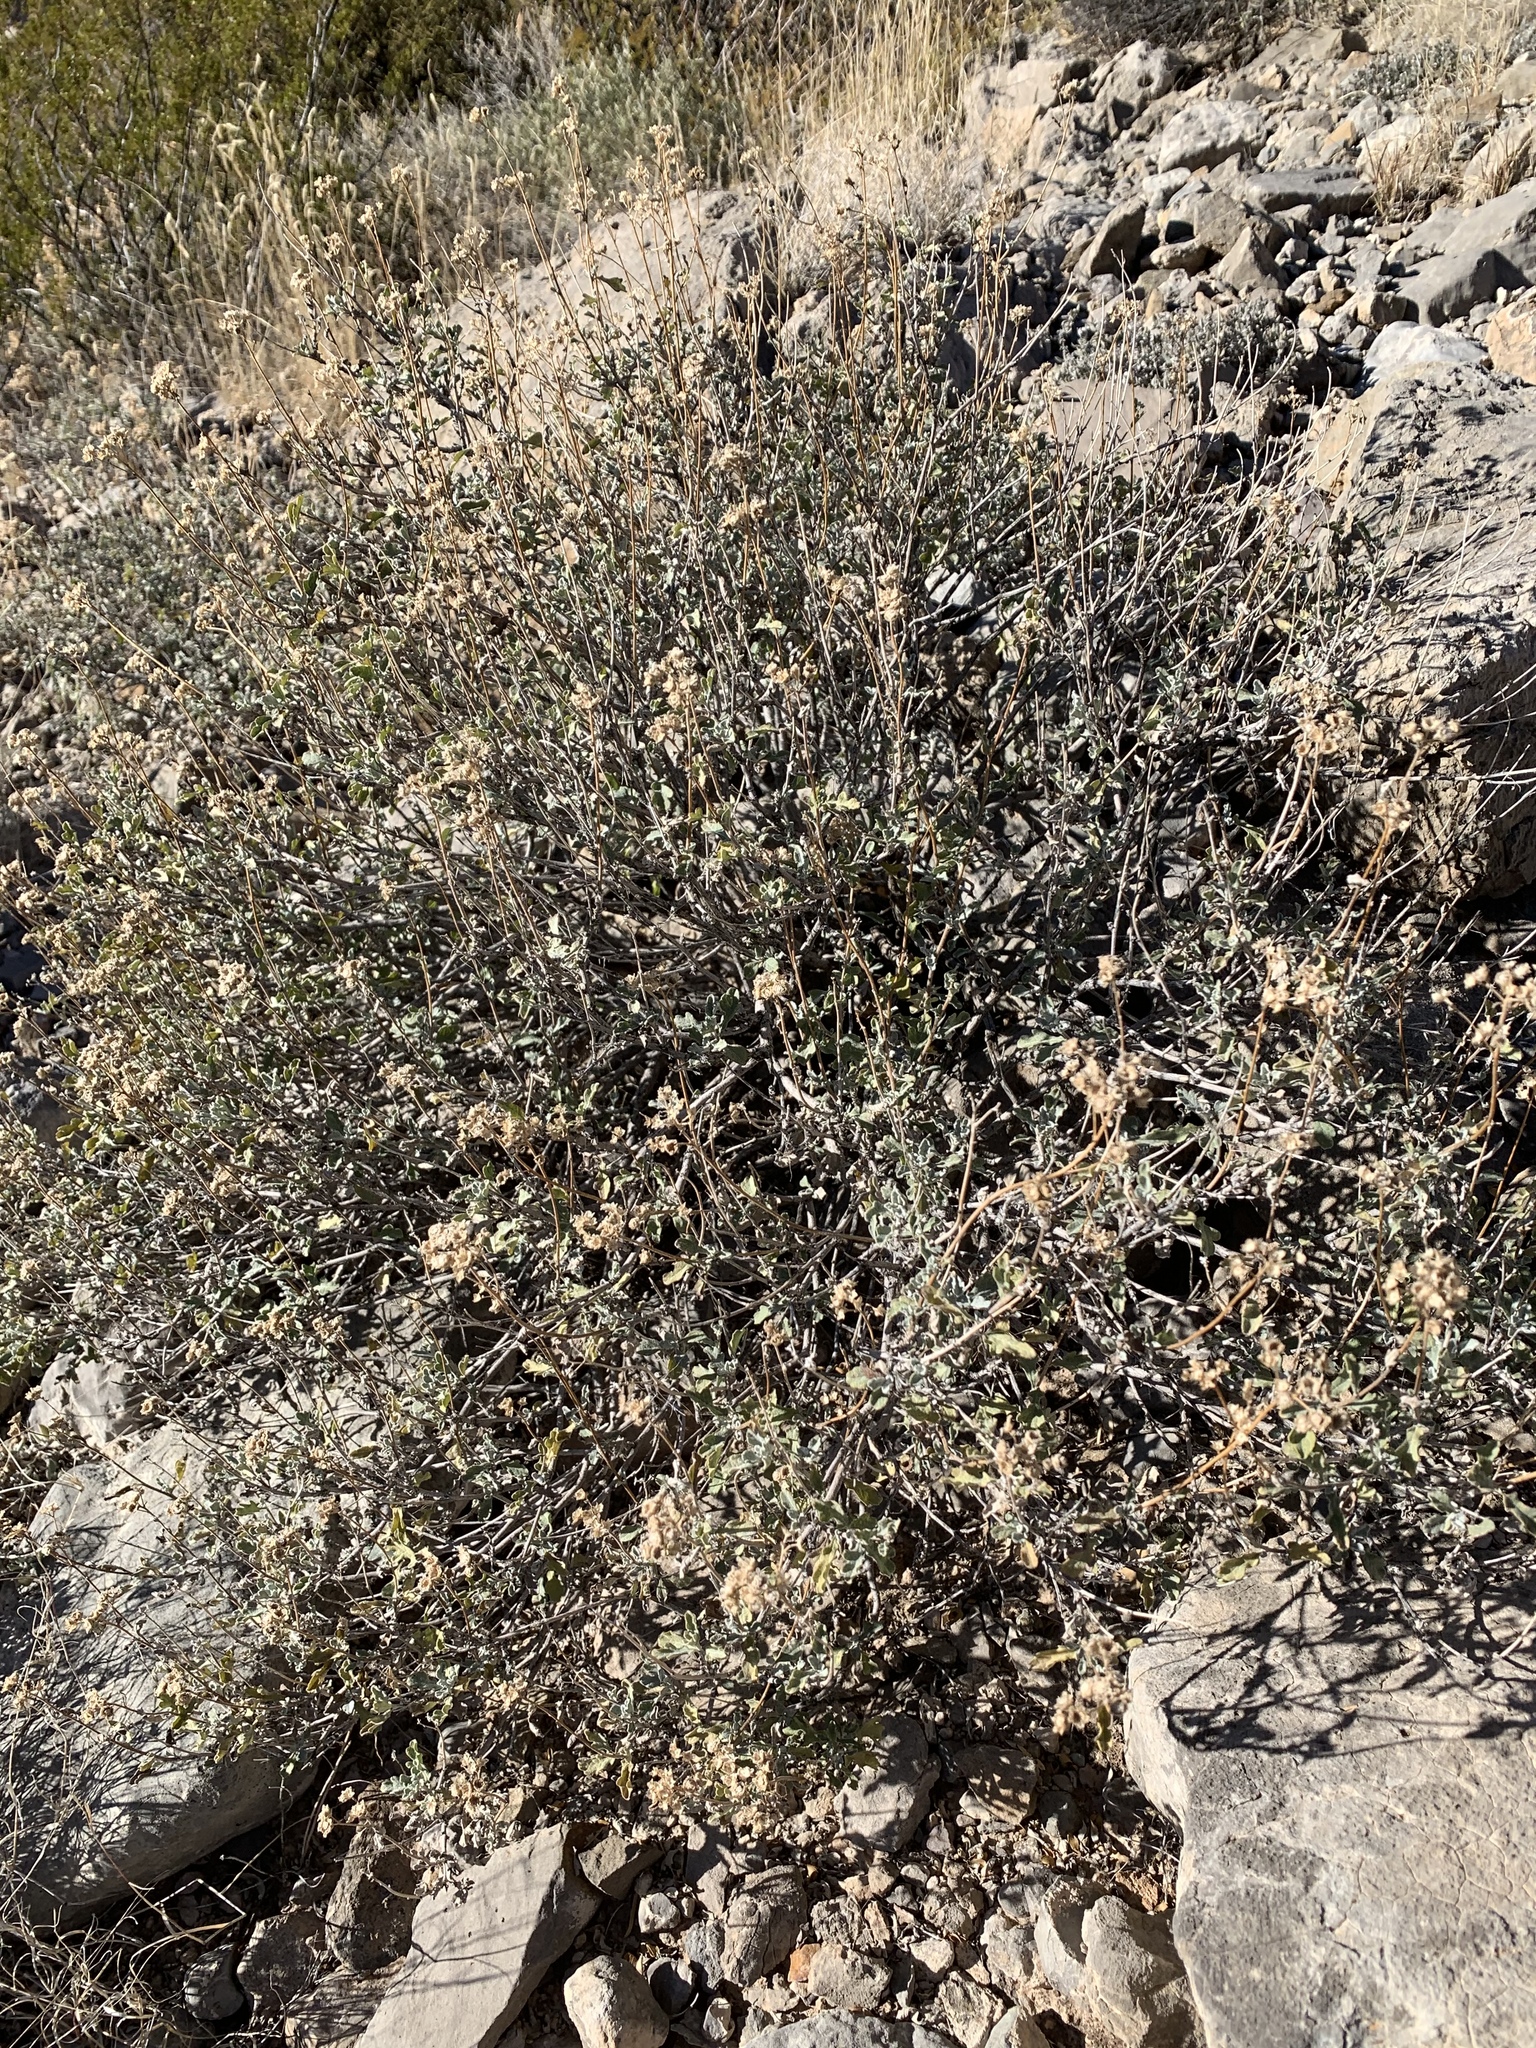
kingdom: Plantae
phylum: Tracheophyta
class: Magnoliopsida
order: Asterales
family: Asteraceae
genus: Parthenium
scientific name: Parthenium incanum
